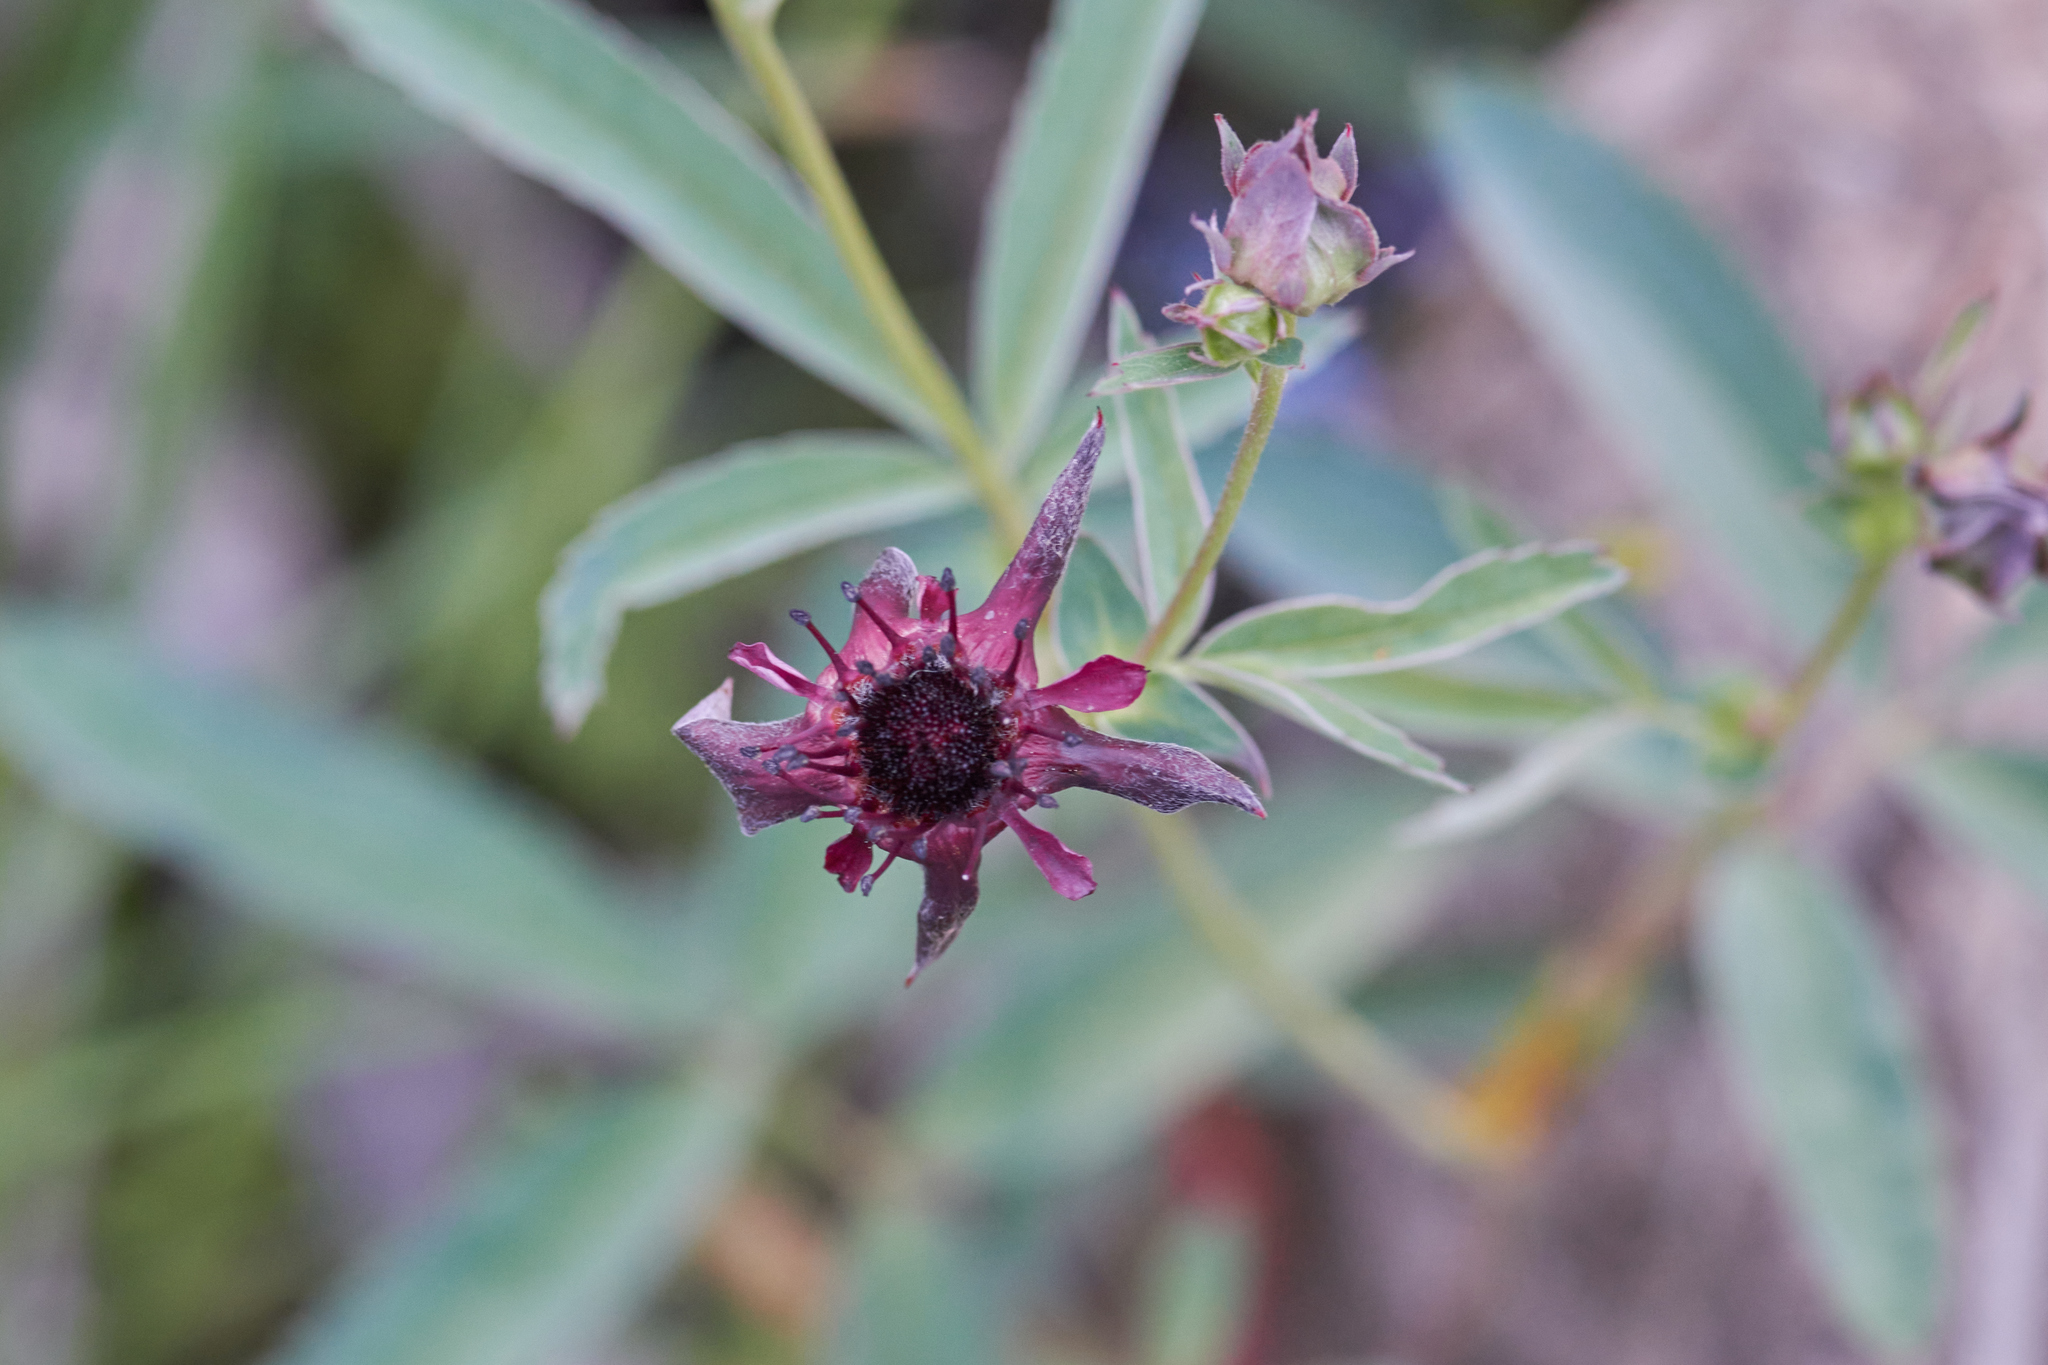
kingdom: Plantae
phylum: Tracheophyta
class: Magnoliopsida
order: Rosales
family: Rosaceae
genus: Comarum
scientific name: Comarum palustre
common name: Marsh cinquefoil
